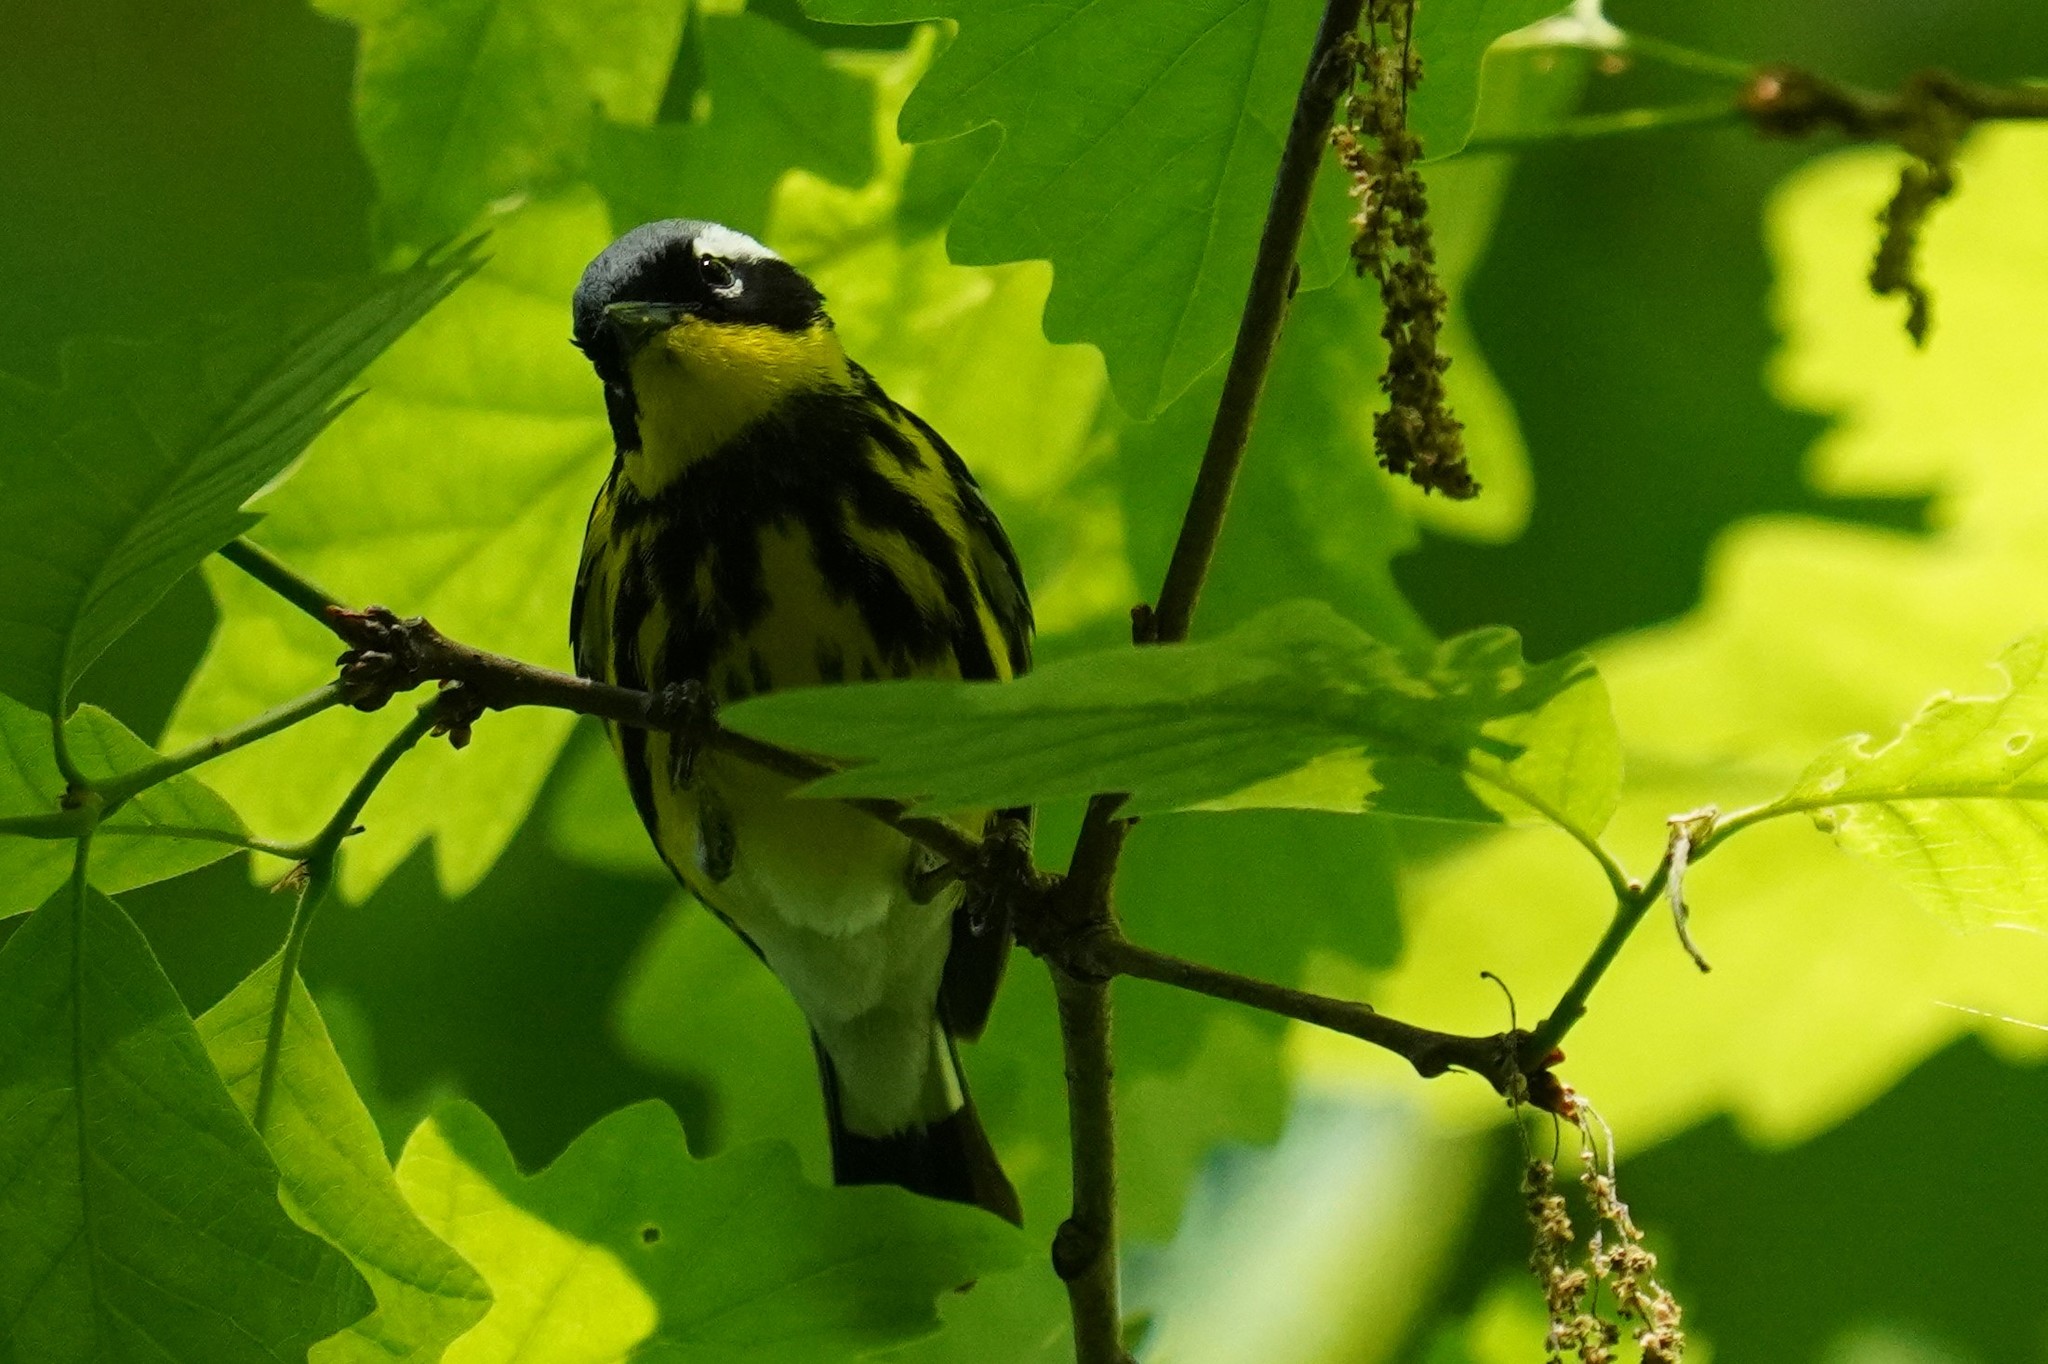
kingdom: Animalia
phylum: Chordata
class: Aves
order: Passeriformes
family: Parulidae
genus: Setophaga
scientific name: Setophaga magnolia
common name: Magnolia warbler
